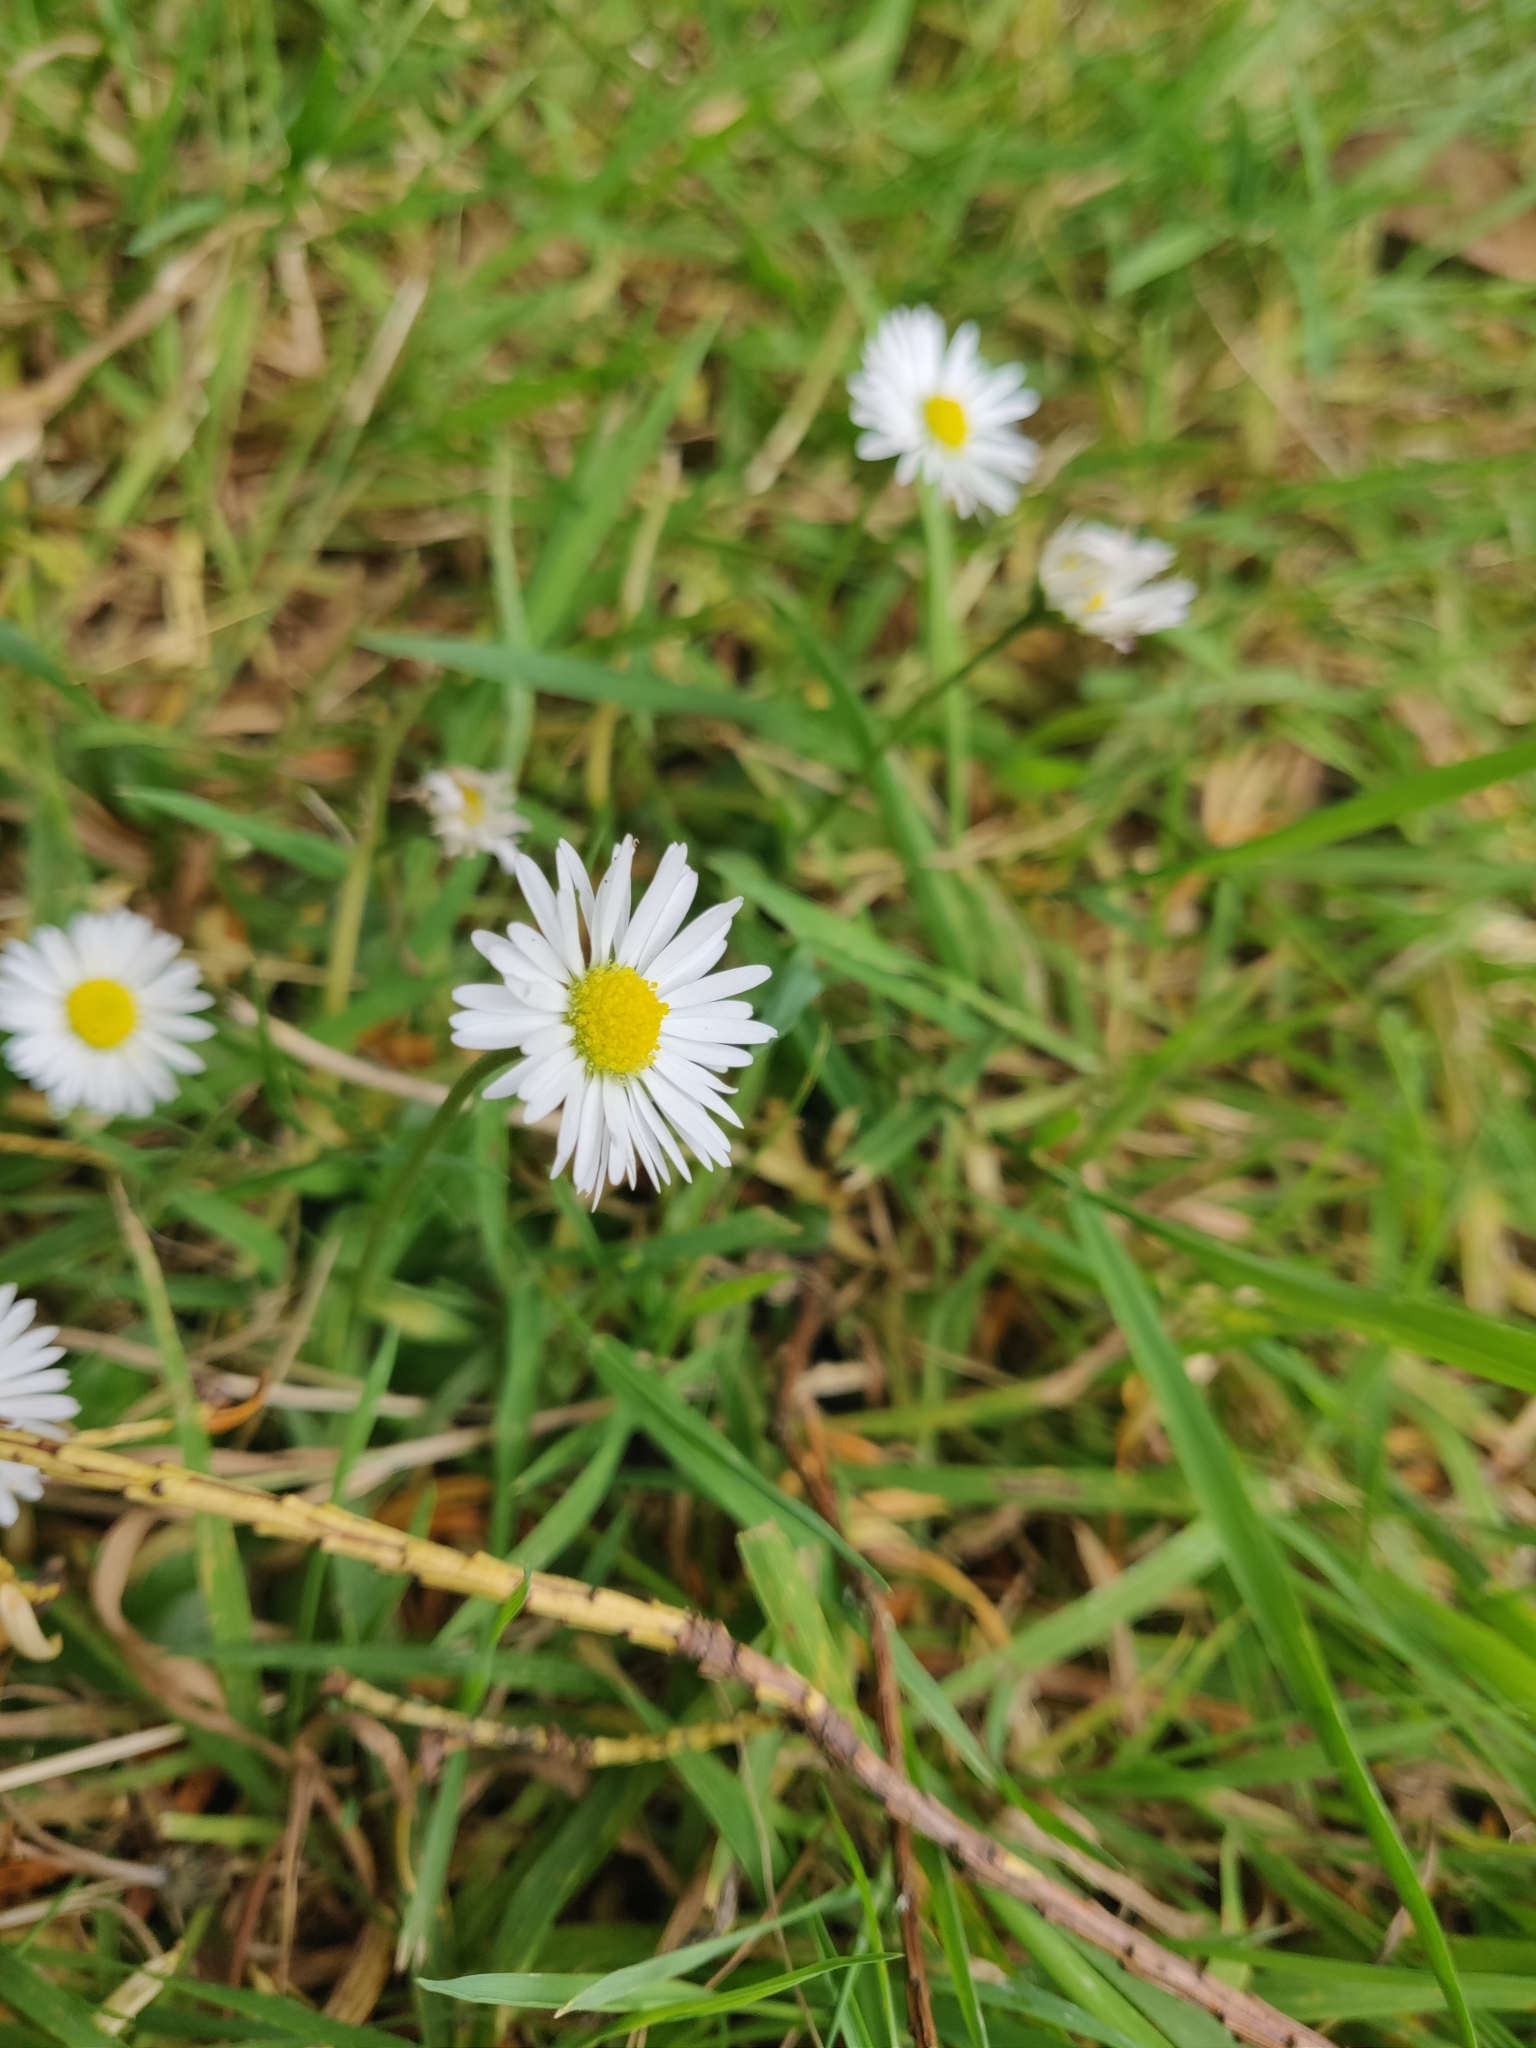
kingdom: Plantae
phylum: Tracheophyta
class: Magnoliopsida
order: Asterales
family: Asteraceae
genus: Bellis
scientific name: Bellis perennis
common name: Lawndaisy
